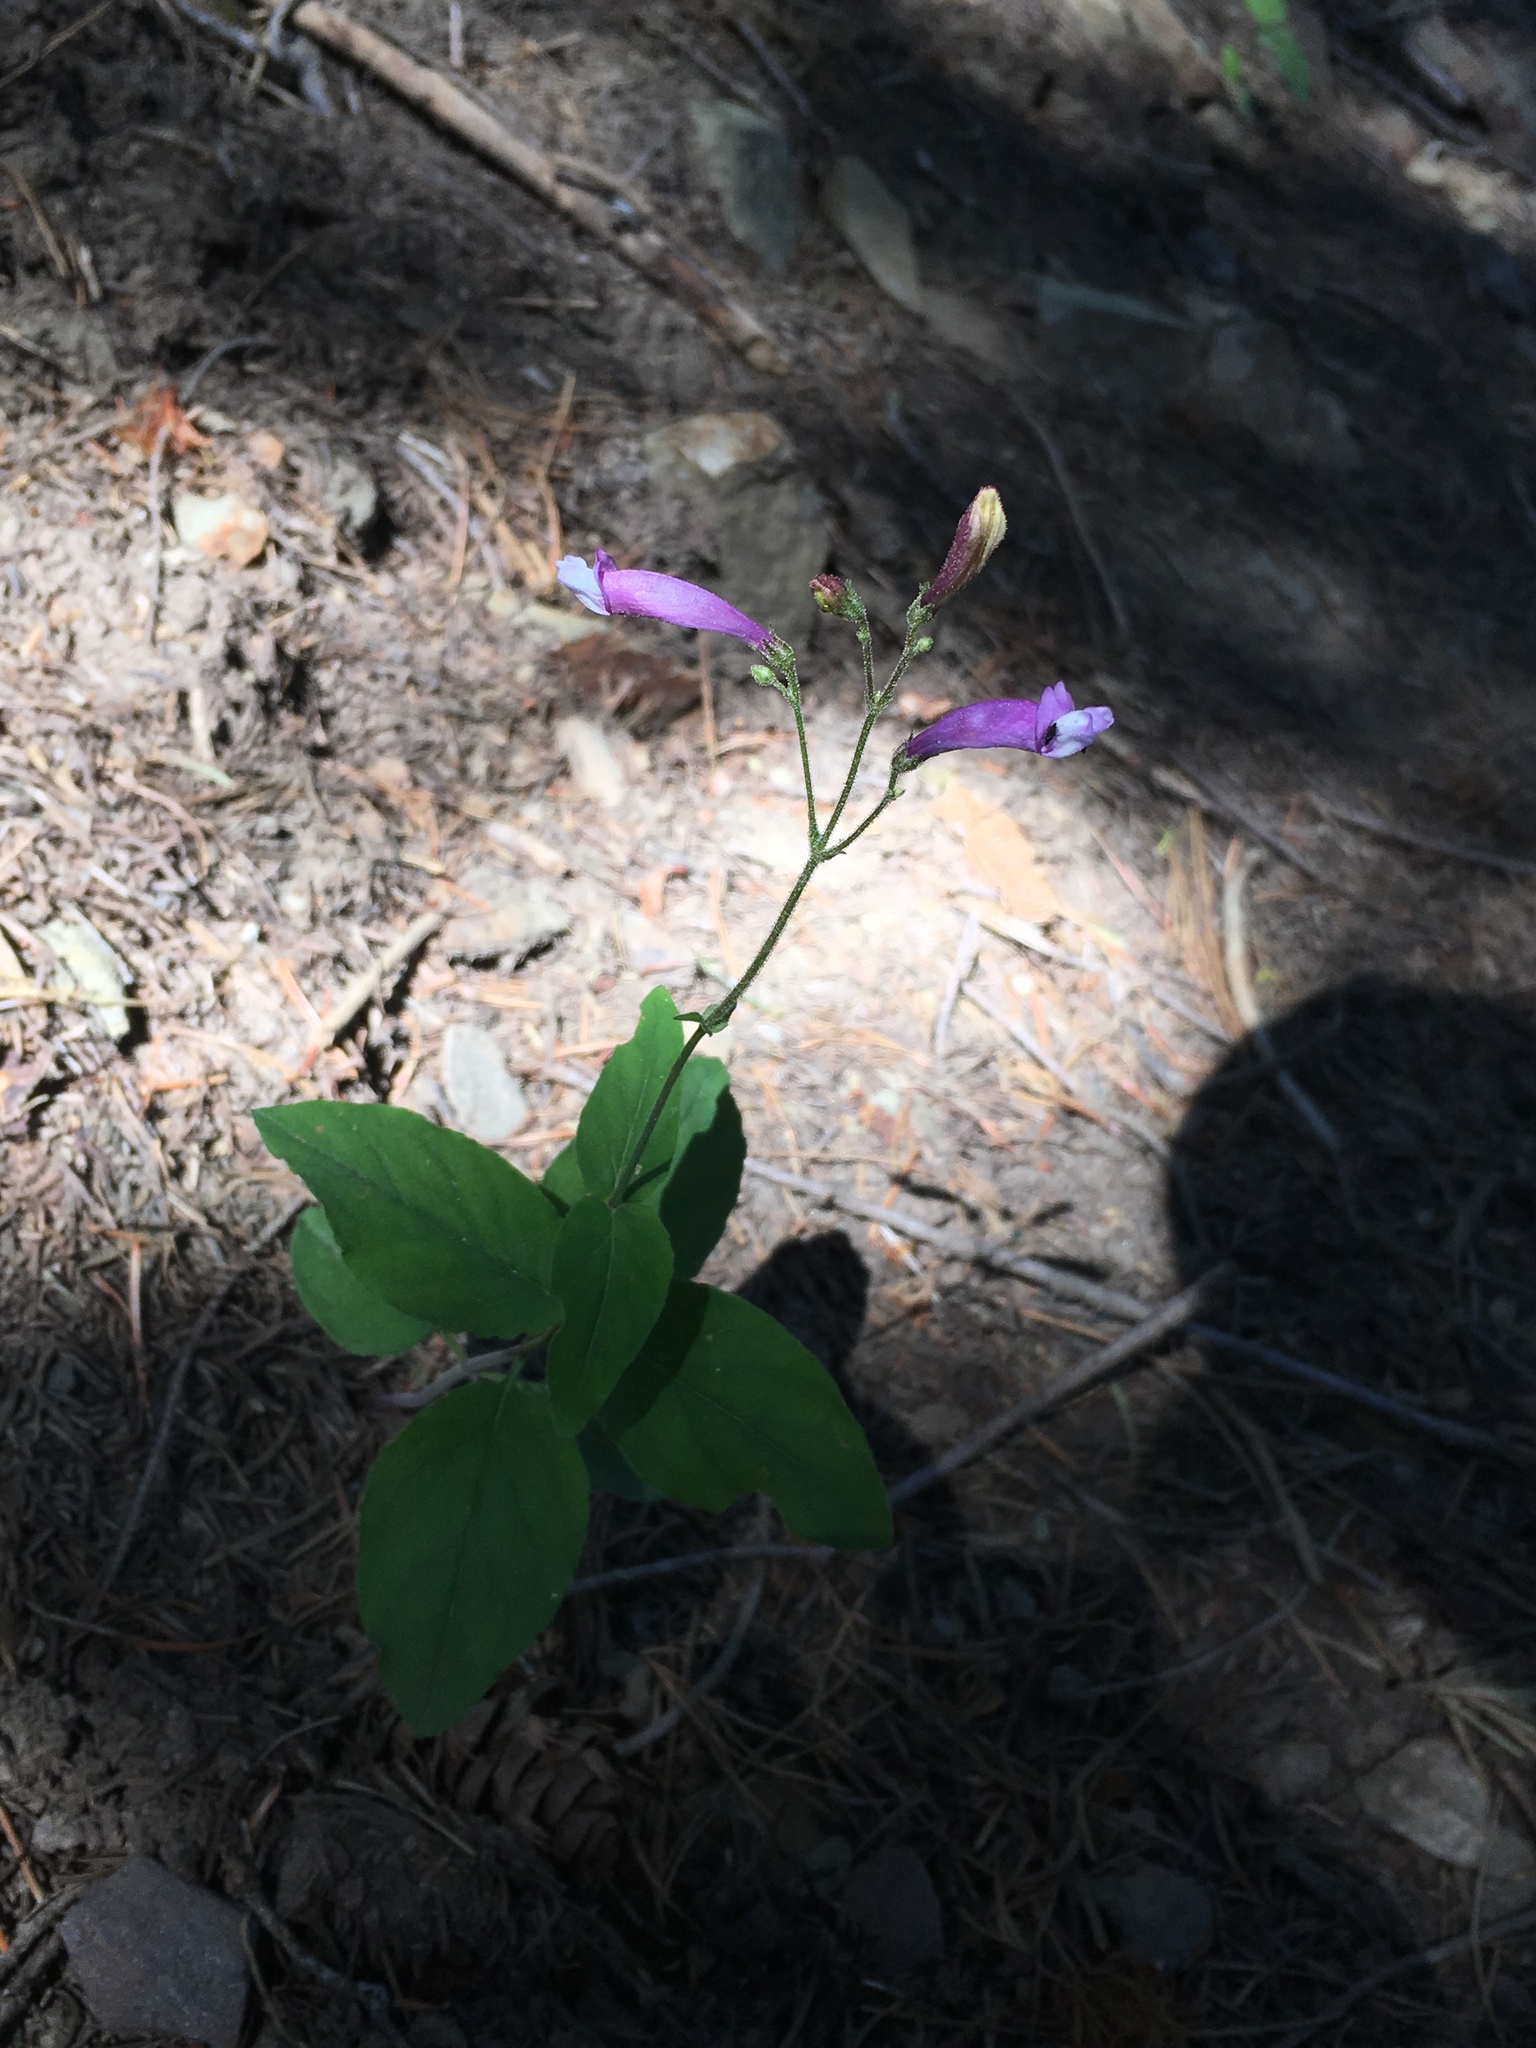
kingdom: Plantae
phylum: Tracheophyta
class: Magnoliopsida
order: Lamiales
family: Plantaginaceae
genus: Penstemon
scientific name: Penstemon personatus
